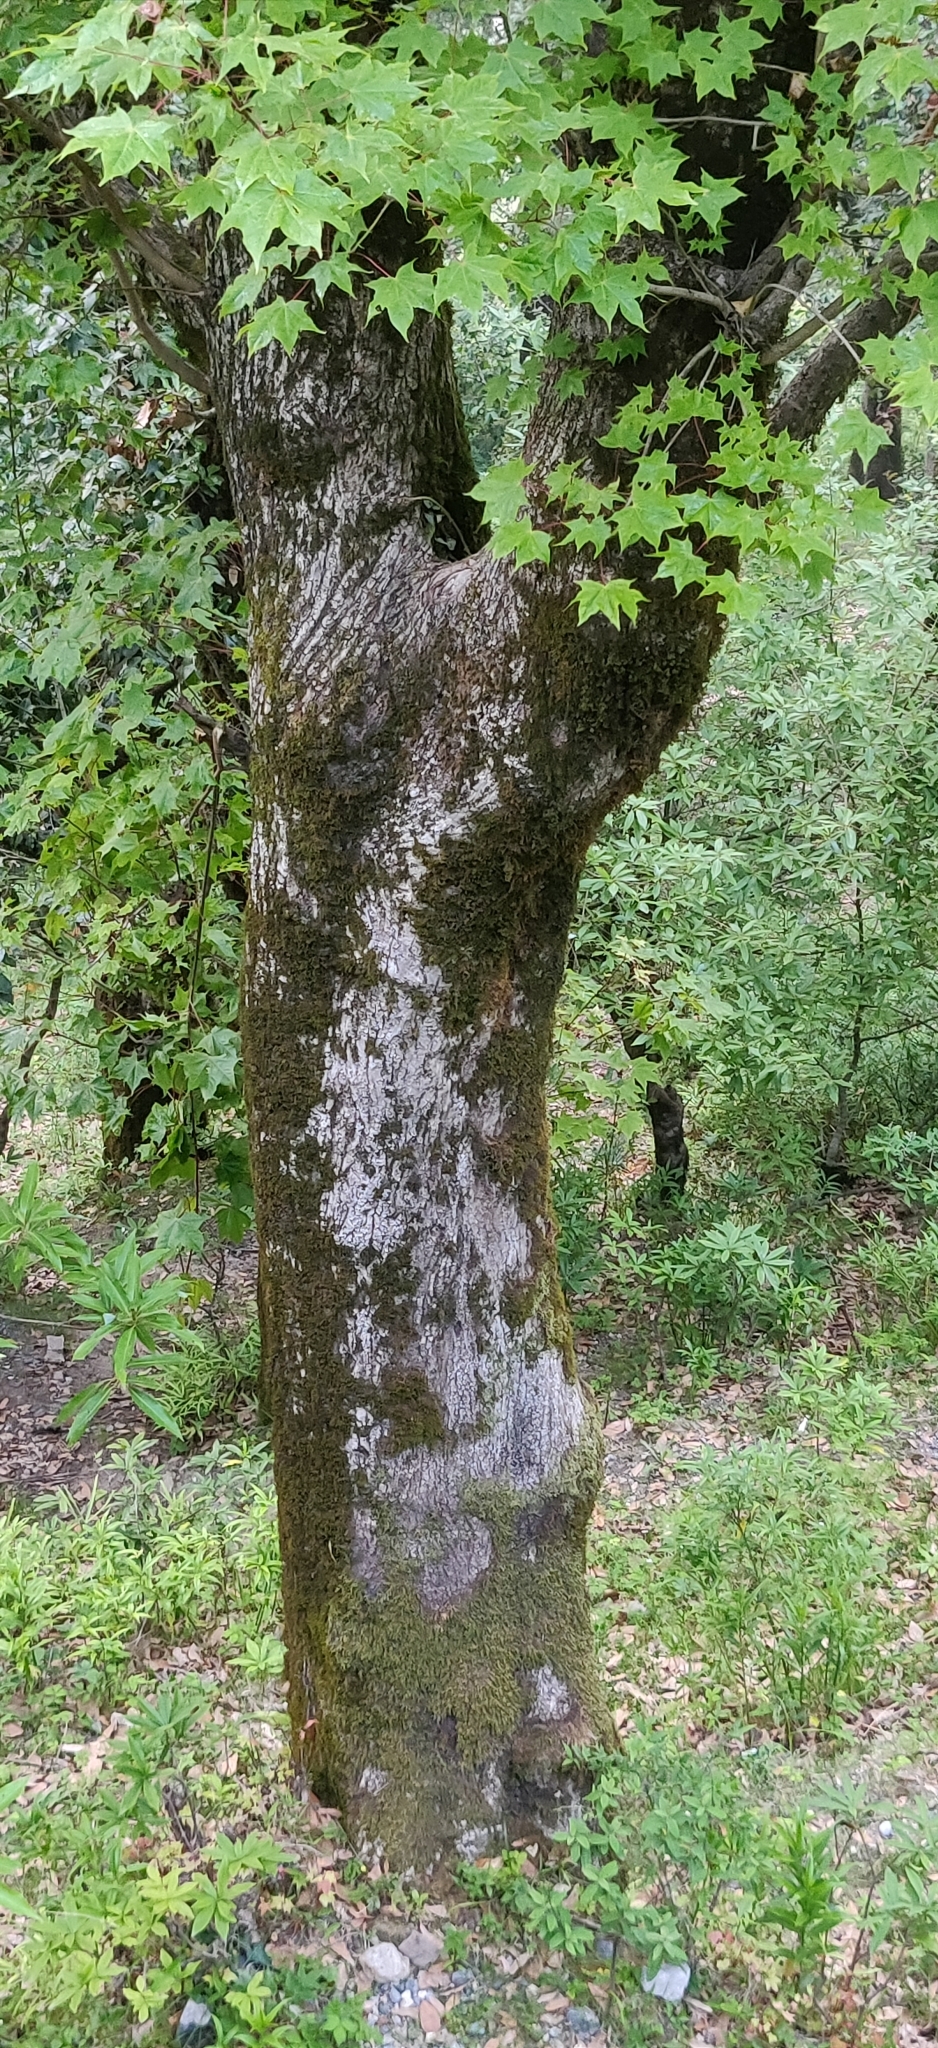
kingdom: Plantae
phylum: Tracheophyta
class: Magnoliopsida
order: Sapindales
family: Sapindaceae
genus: Acer
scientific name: Acer cappadocicum
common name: Cappadocian maple
